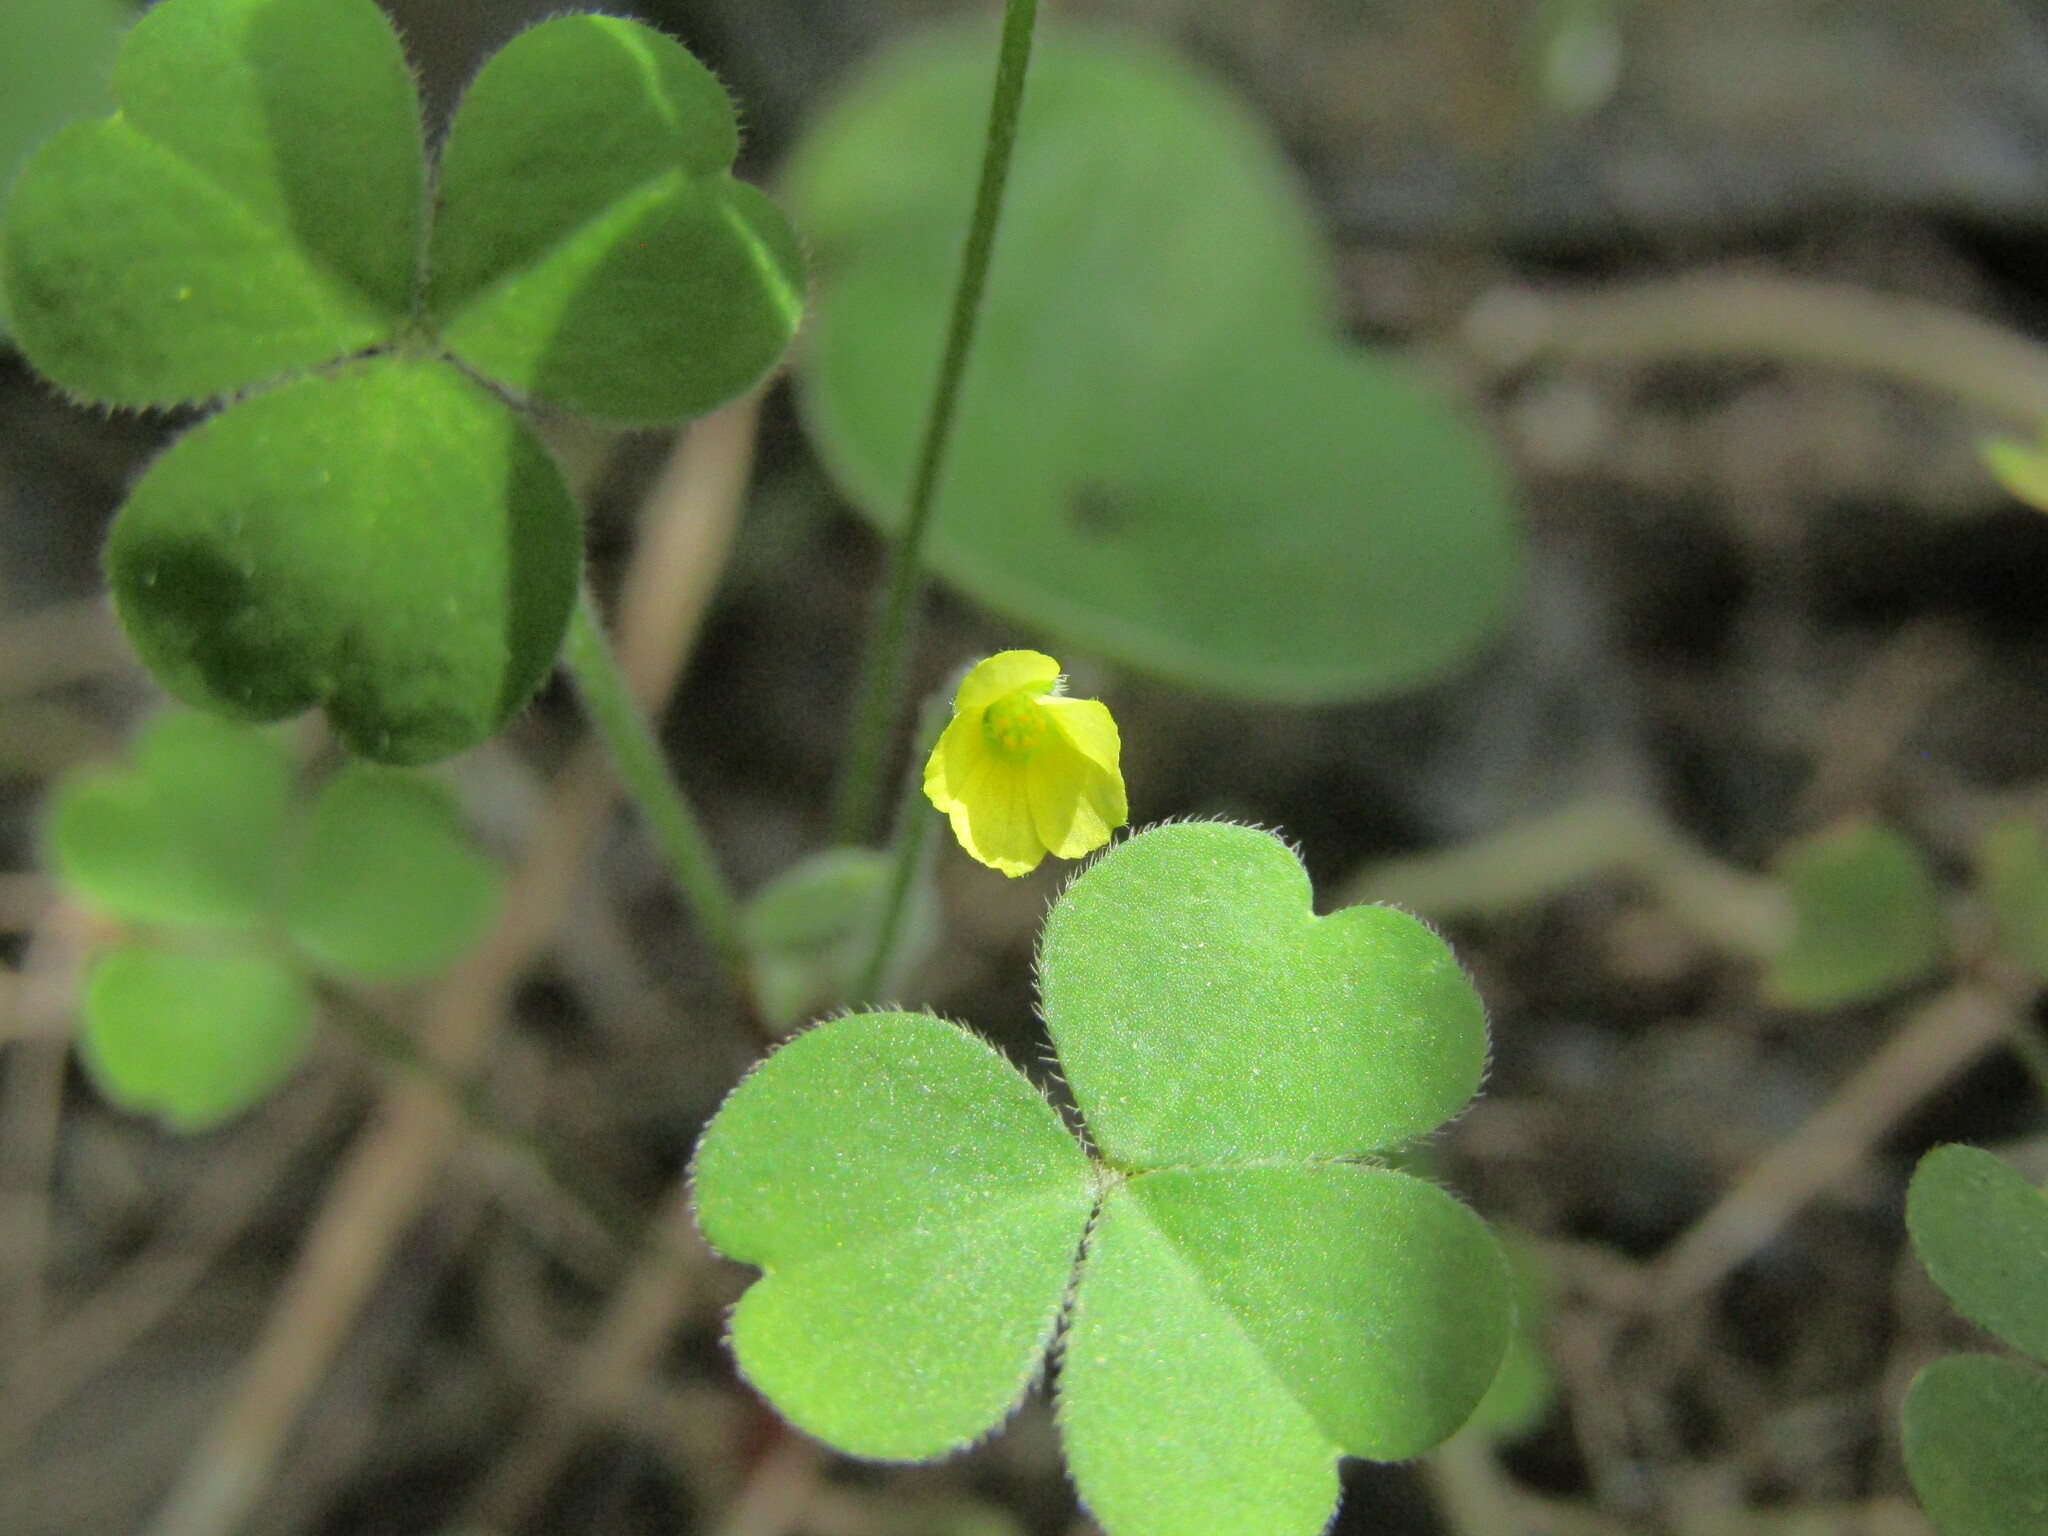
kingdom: Plantae
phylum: Tracheophyta
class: Magnoliopsida
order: Oxalidales
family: Oxalidaceae
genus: Oxalis
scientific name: Oxalis laxa
